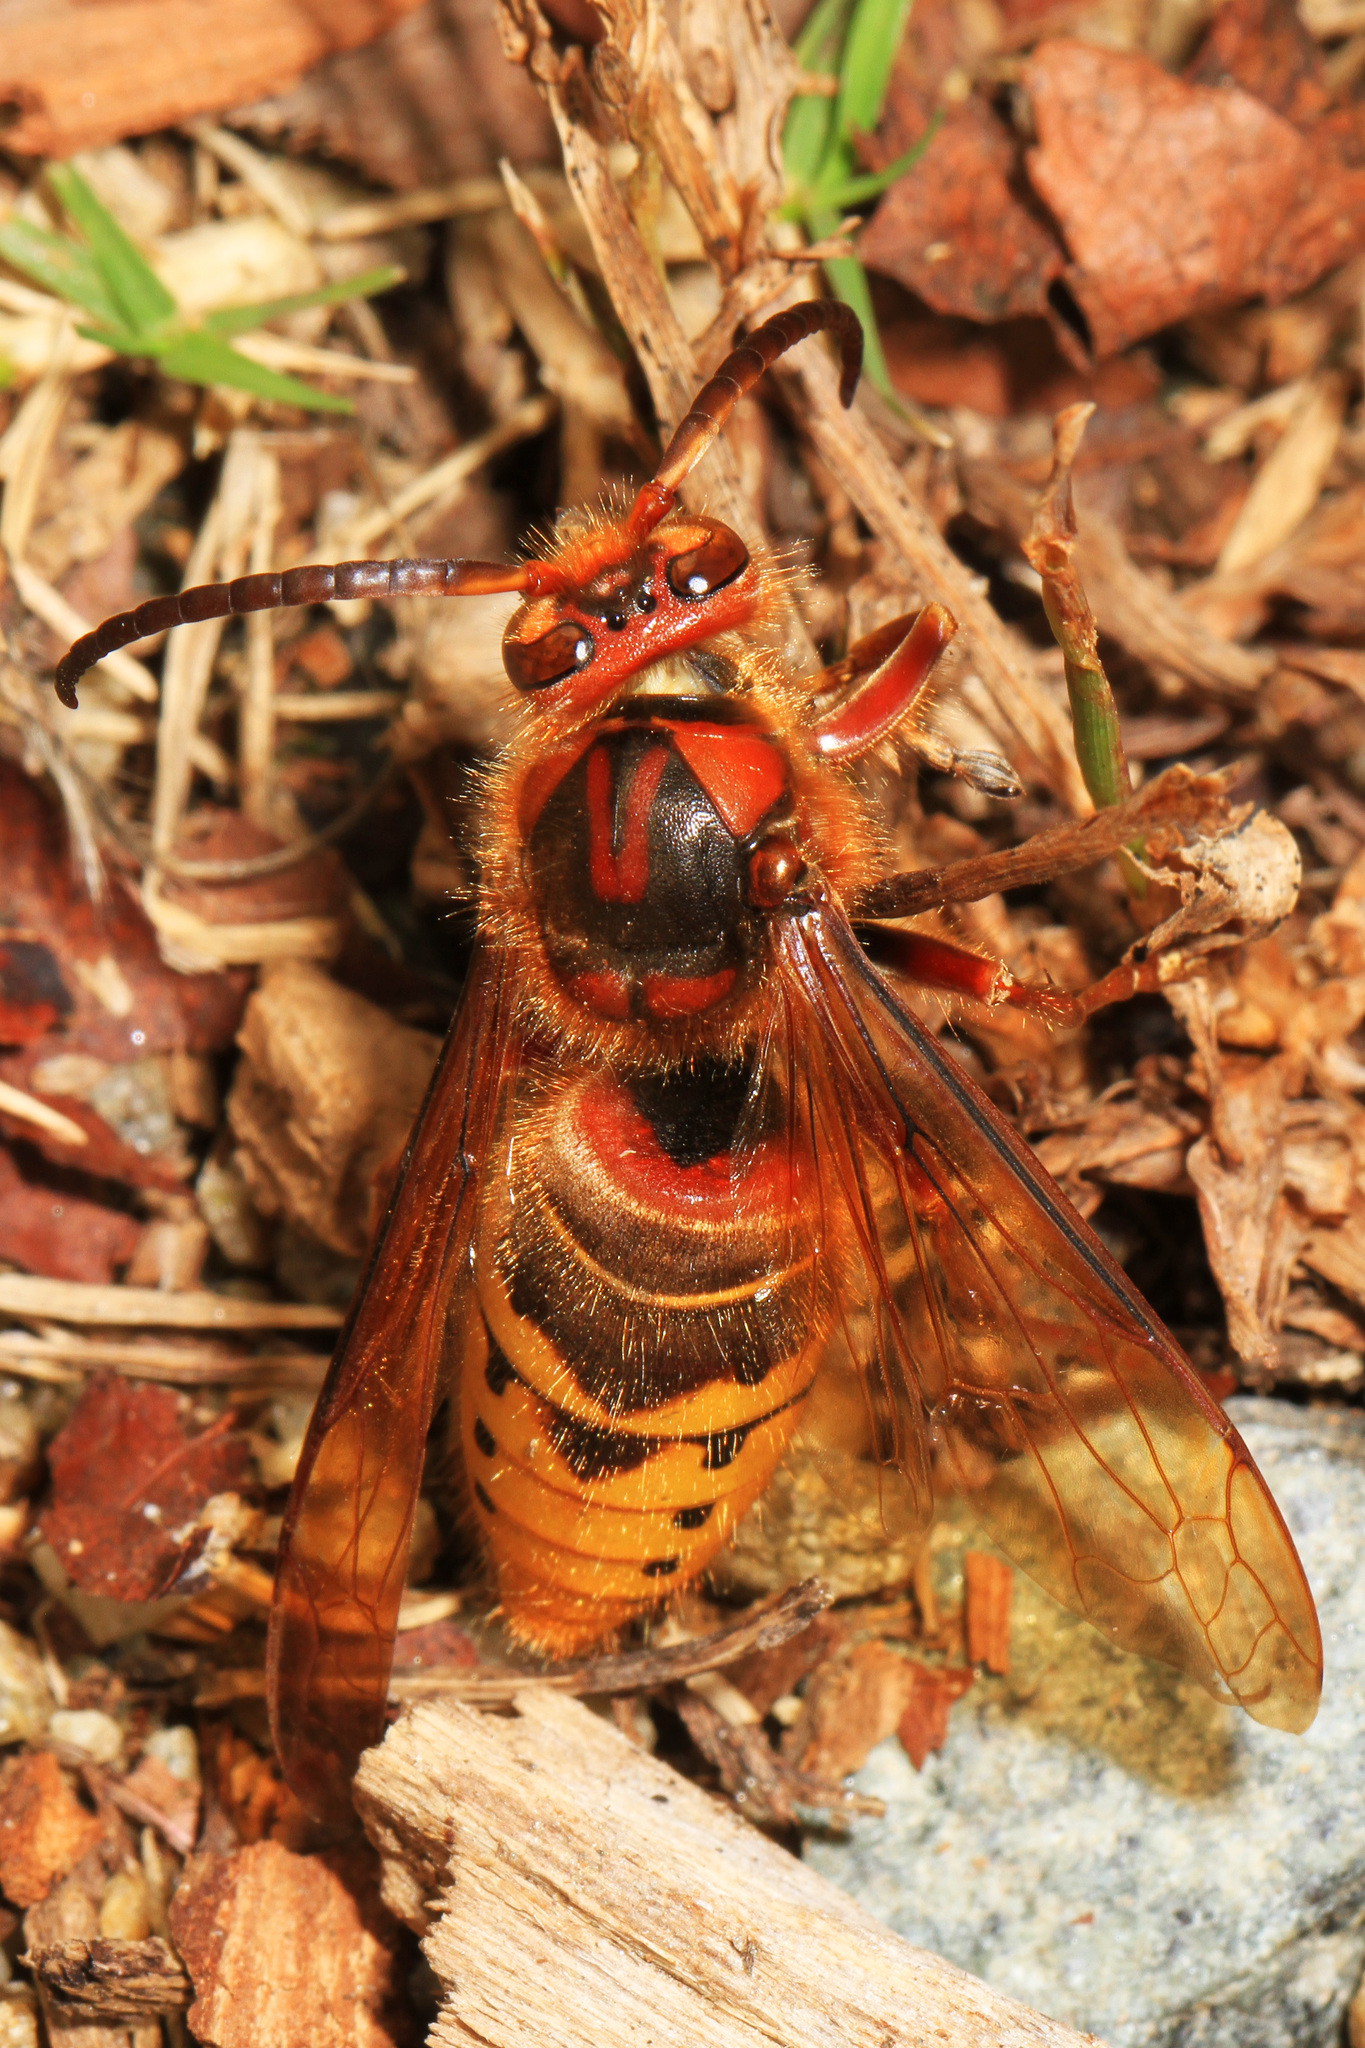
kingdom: Animalia
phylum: Arthropoda
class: Insecta
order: Hymenoptera
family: Vespidae
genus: Vespa
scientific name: Vespa crabro
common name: Hornet
